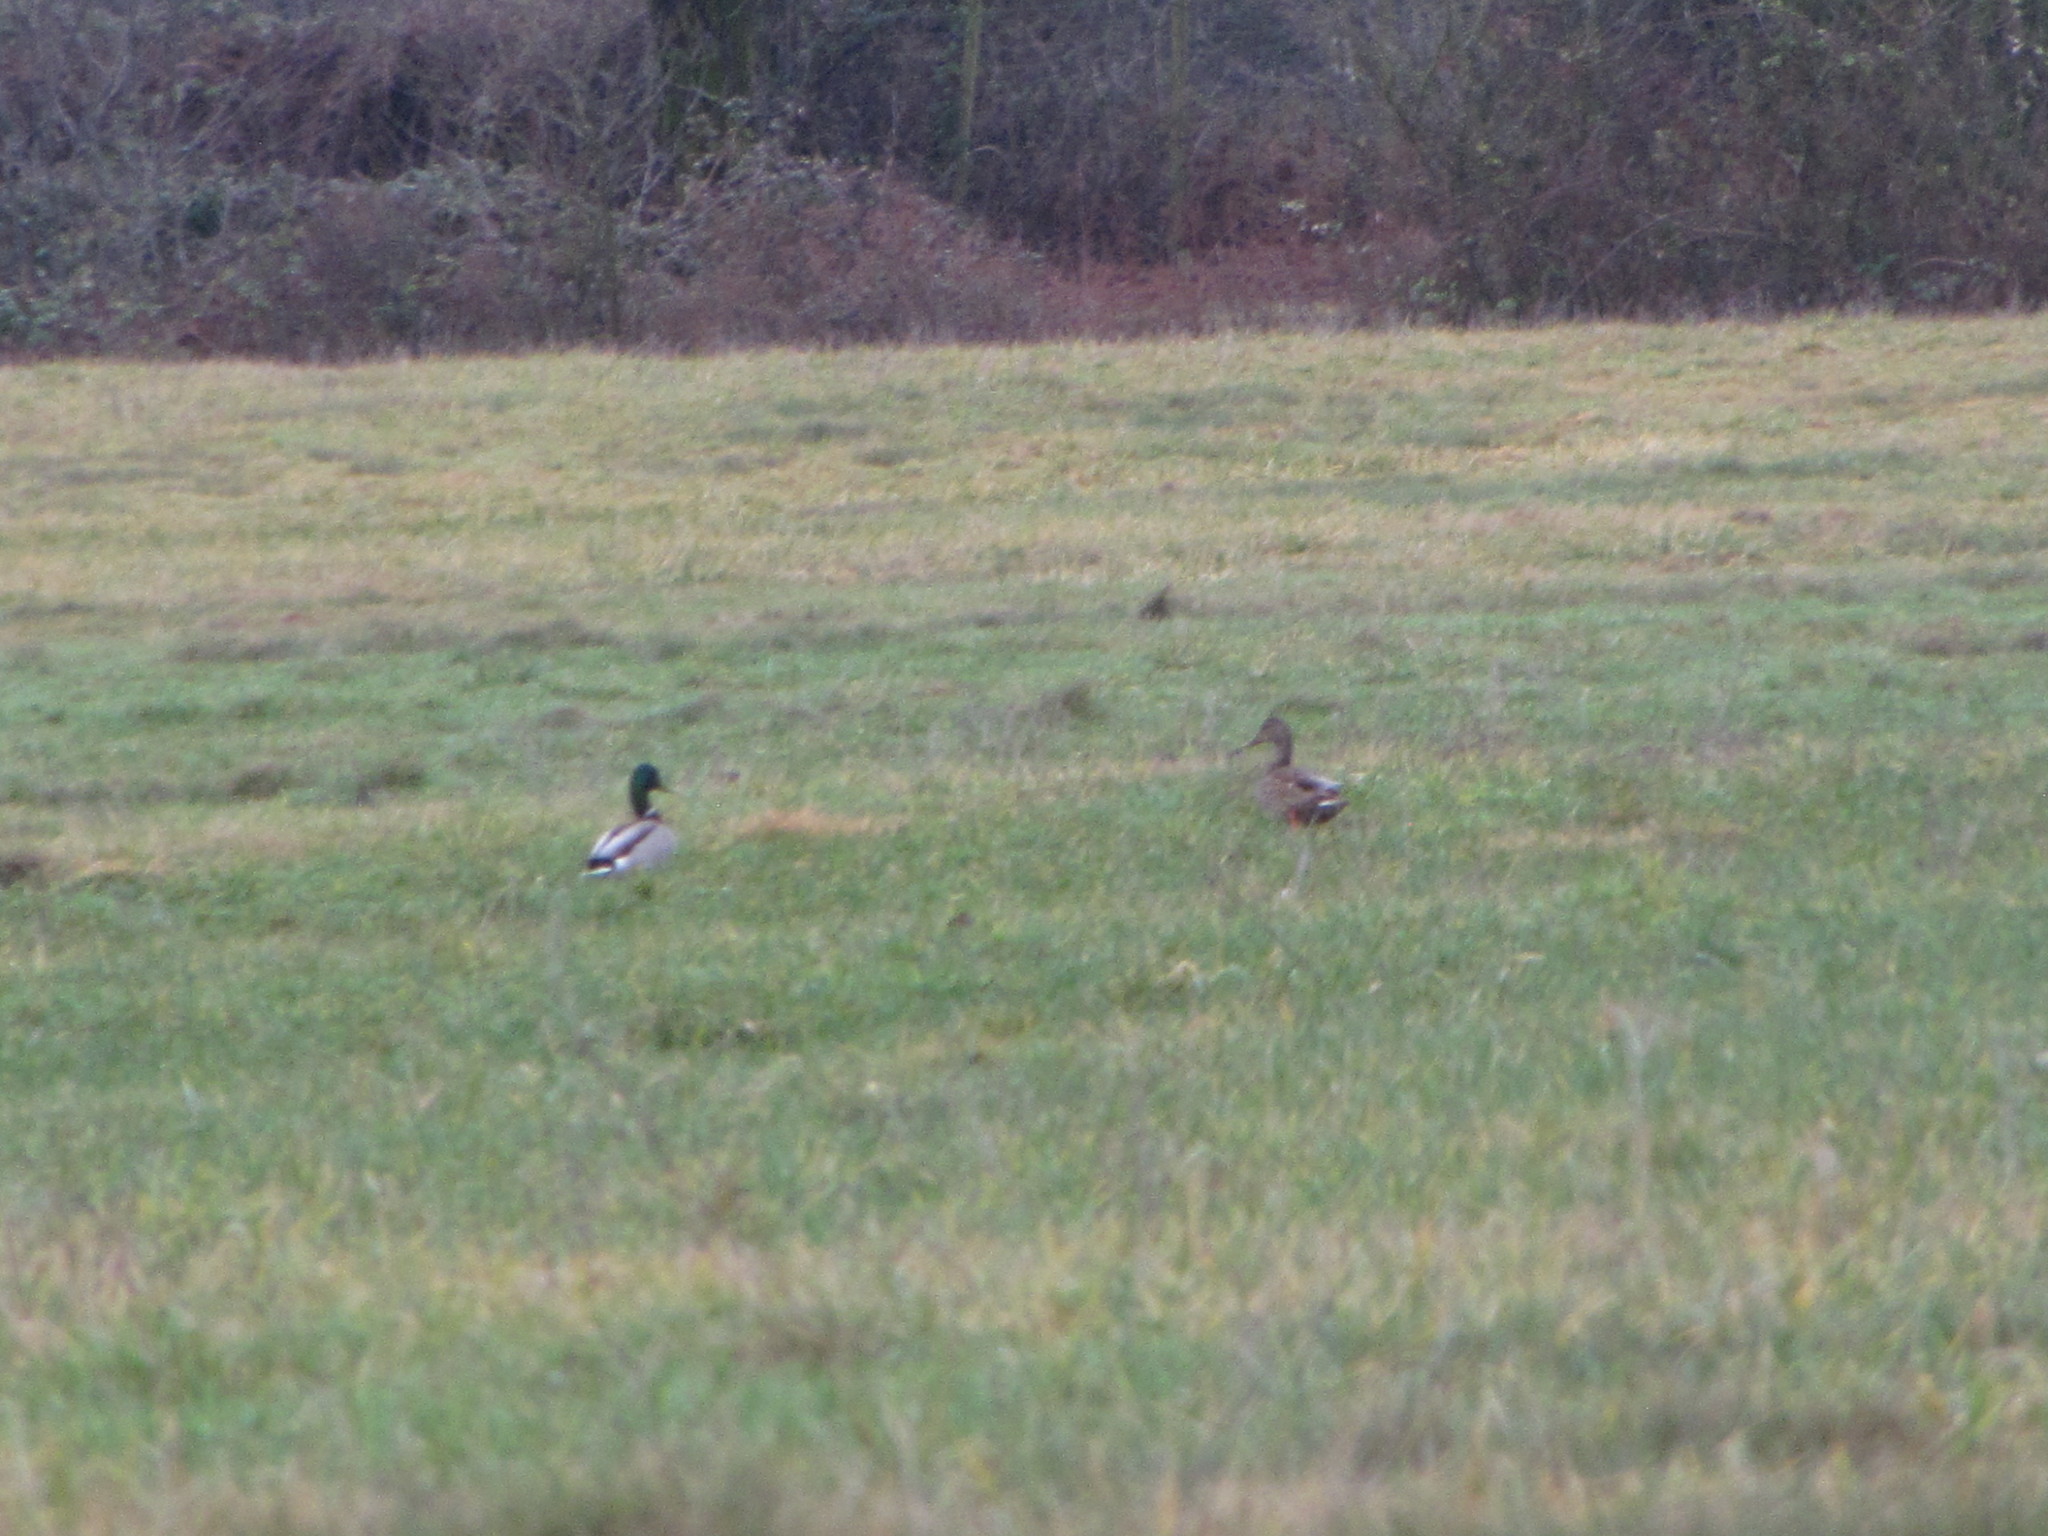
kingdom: Animalia
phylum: Chordata
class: Aves
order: Anseriformes
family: Anatidae
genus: Anas
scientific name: Anas platyrhynchos
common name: Mallard
